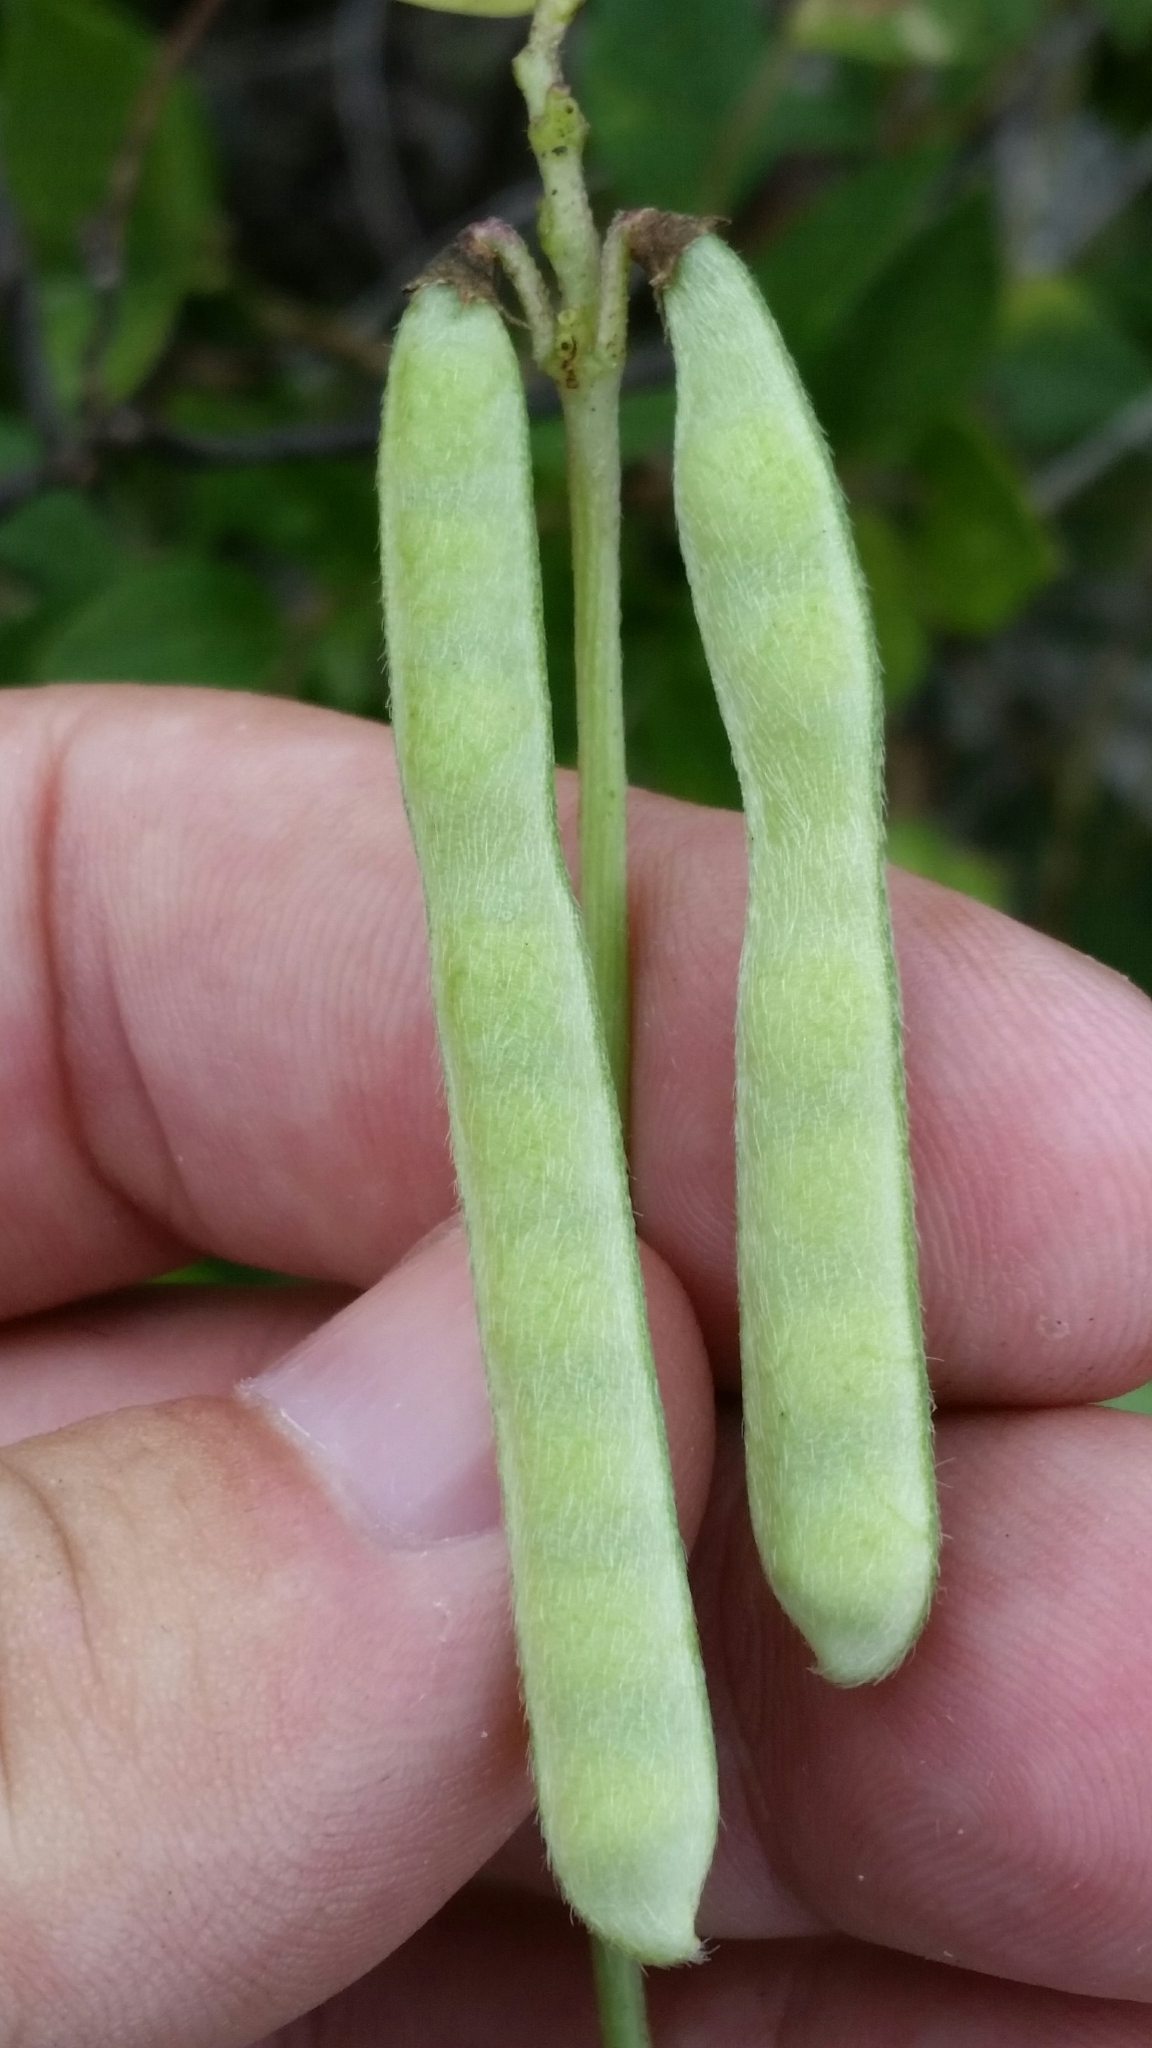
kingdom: Plantae
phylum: Tracheophyta
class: Magnoliopsida
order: Fabales
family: Fabaceae
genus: Vigna
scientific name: Vigna luteola
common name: Hairypod cowpea
